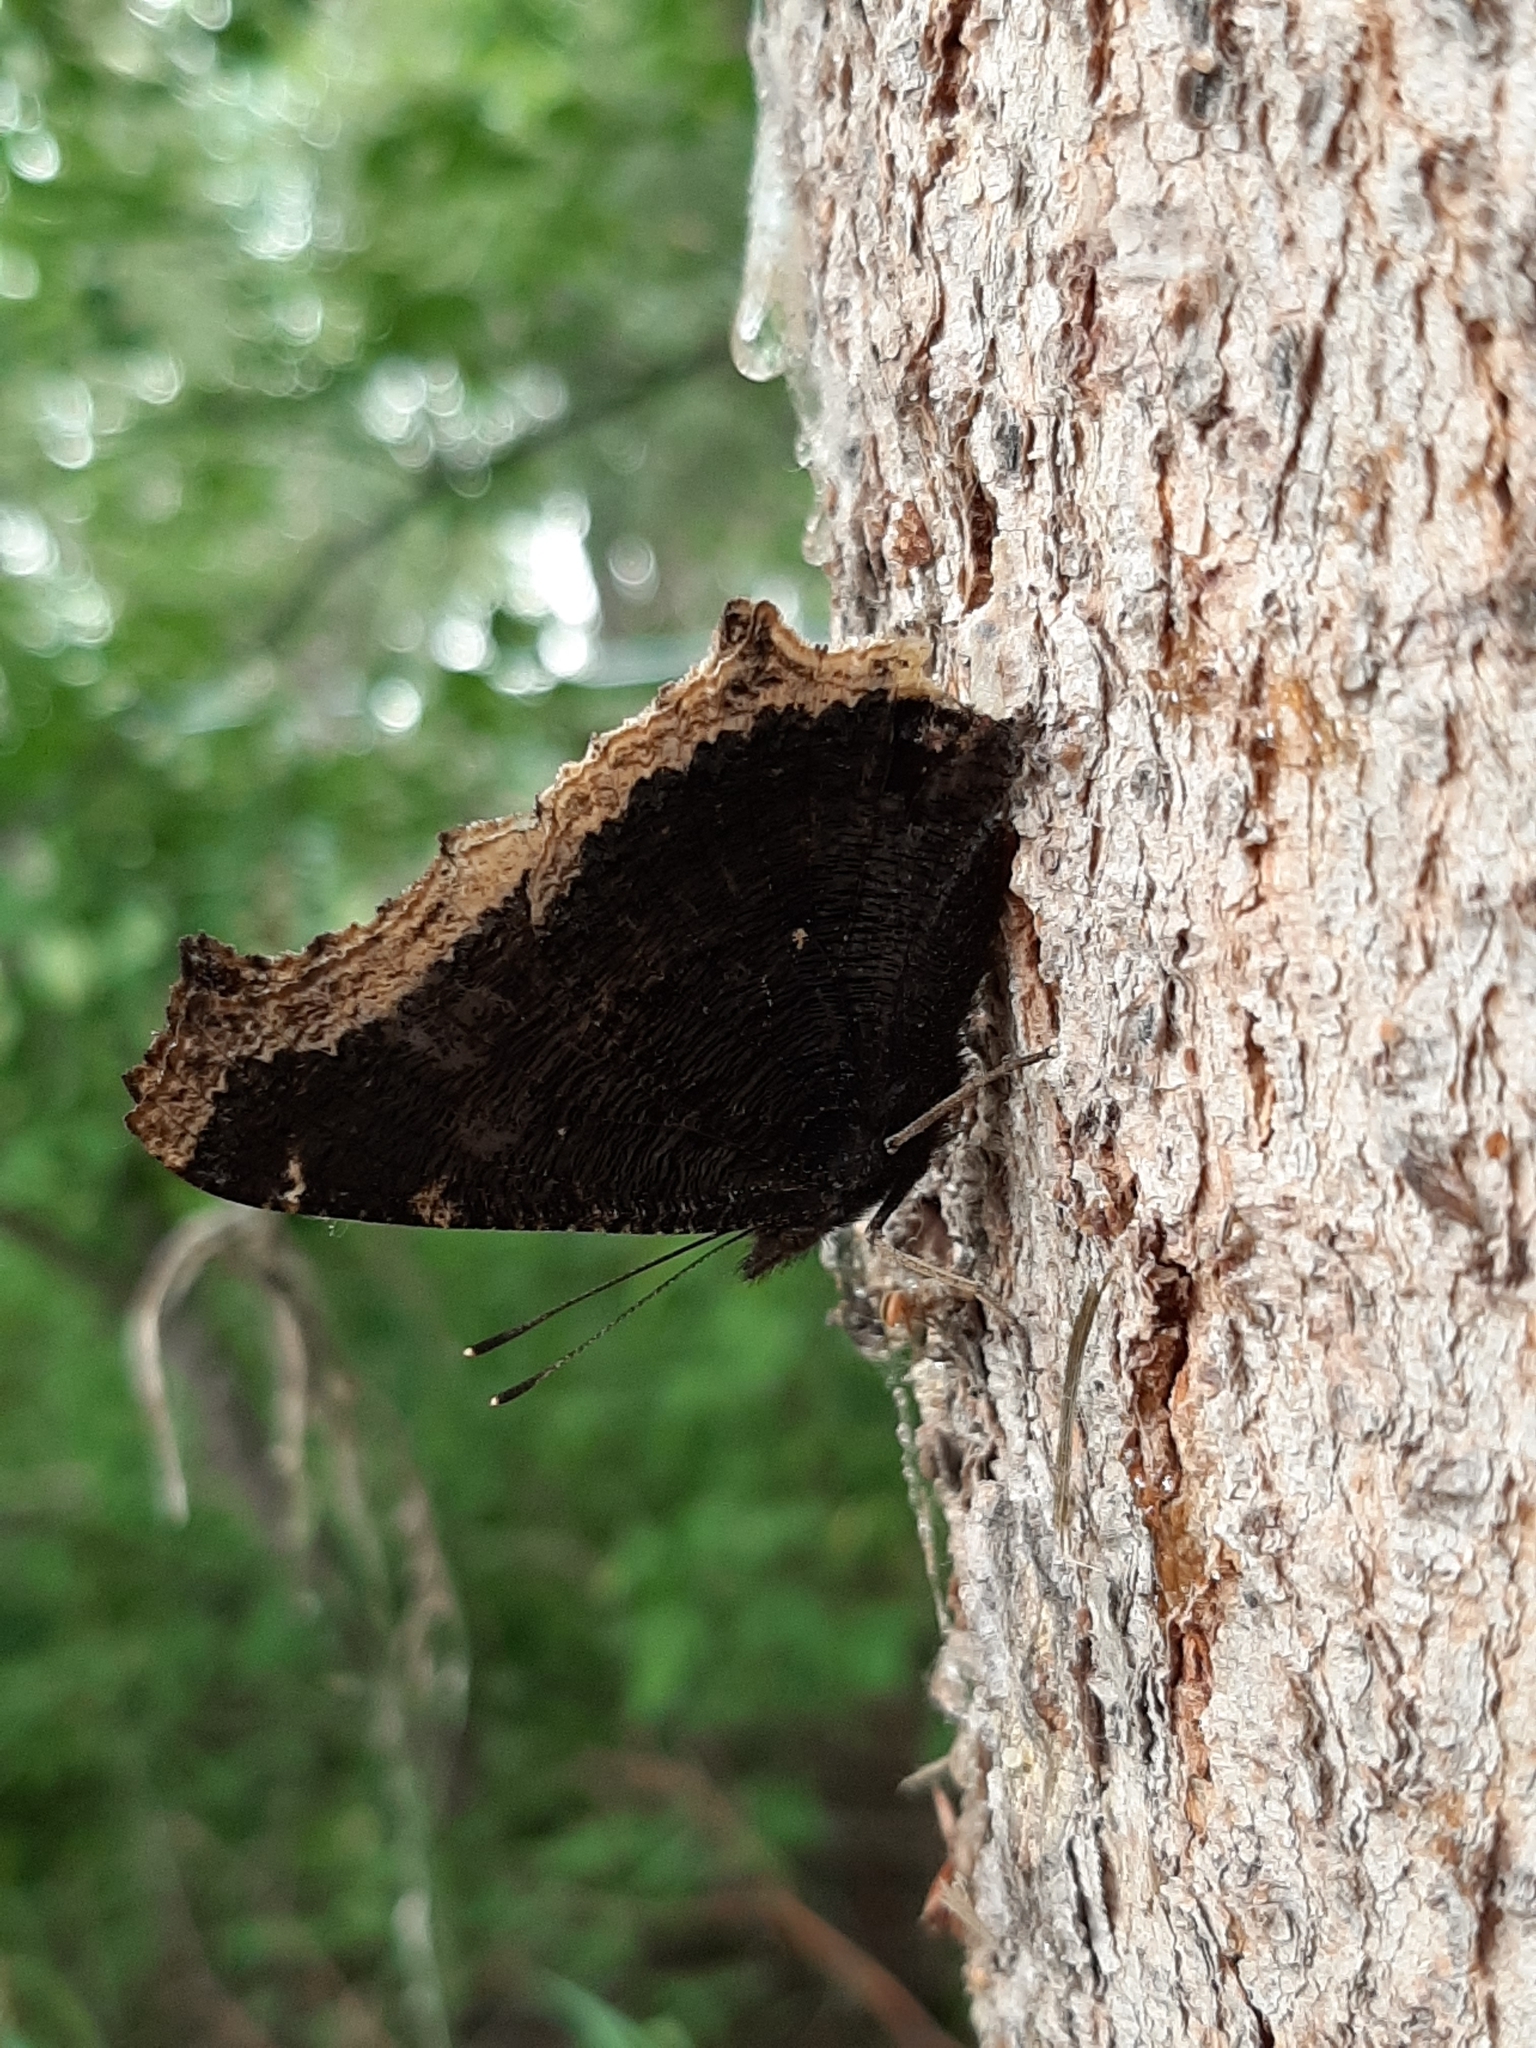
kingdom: Animalia
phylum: Arthropoda
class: Insecta
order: Lepidoptera
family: Nymphalidae
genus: Nymphalis
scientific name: Nymphalis antiopa
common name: Camberwell beauty
